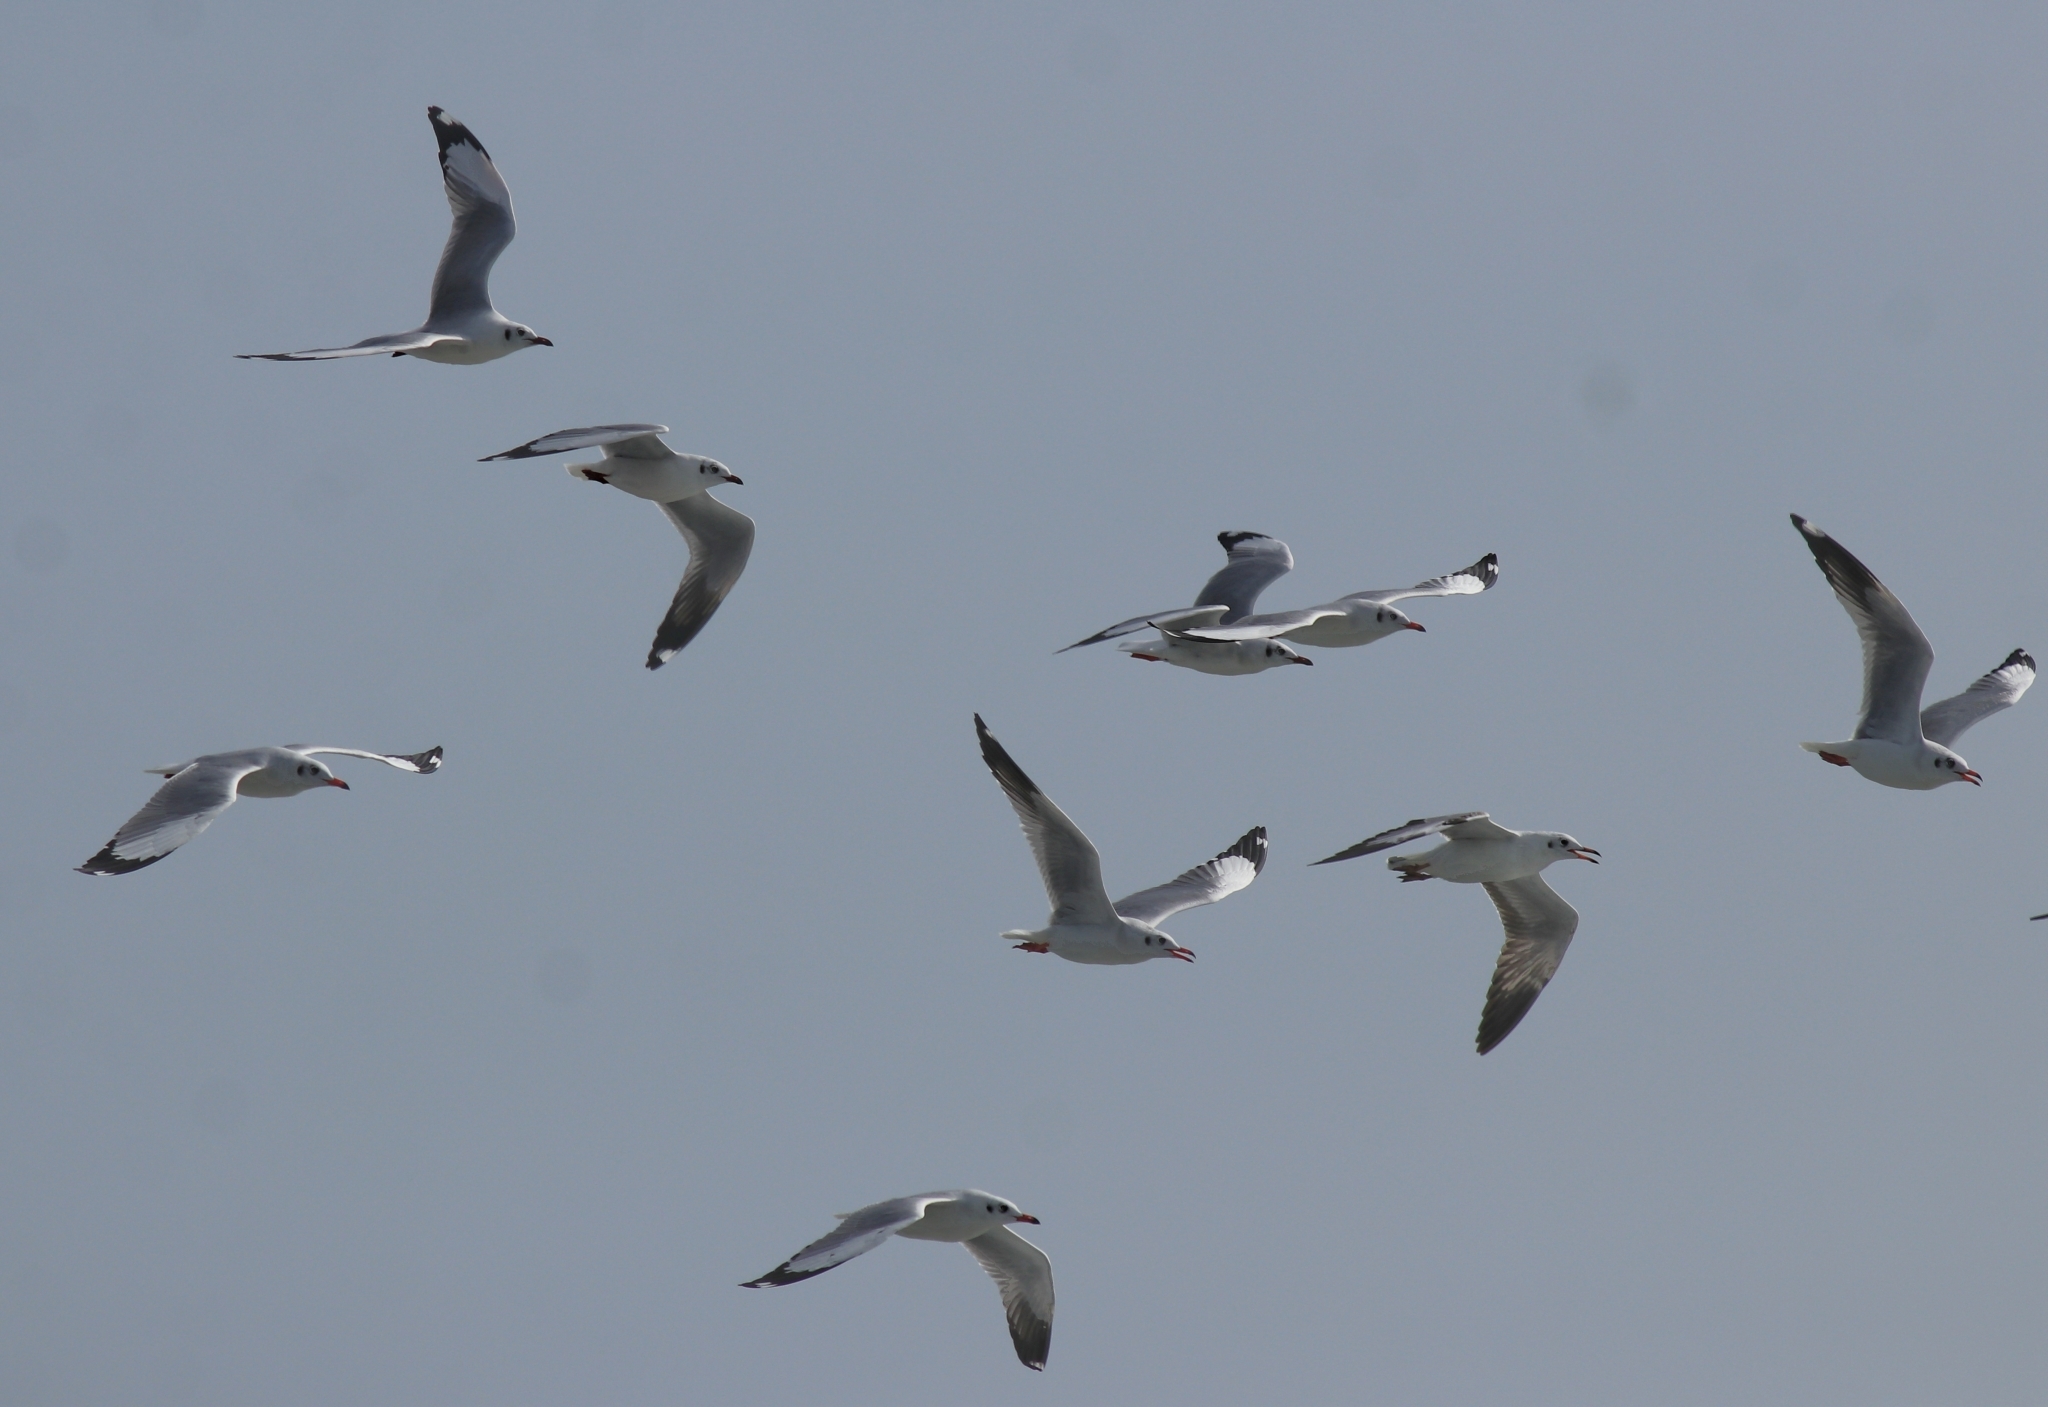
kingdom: Animalia
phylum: Chordata
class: Aves
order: Charadriiformes
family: Laridae
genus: Chroicocephalus
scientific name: Chroicocephalus brunnicephalus
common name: Brown-headed gull
